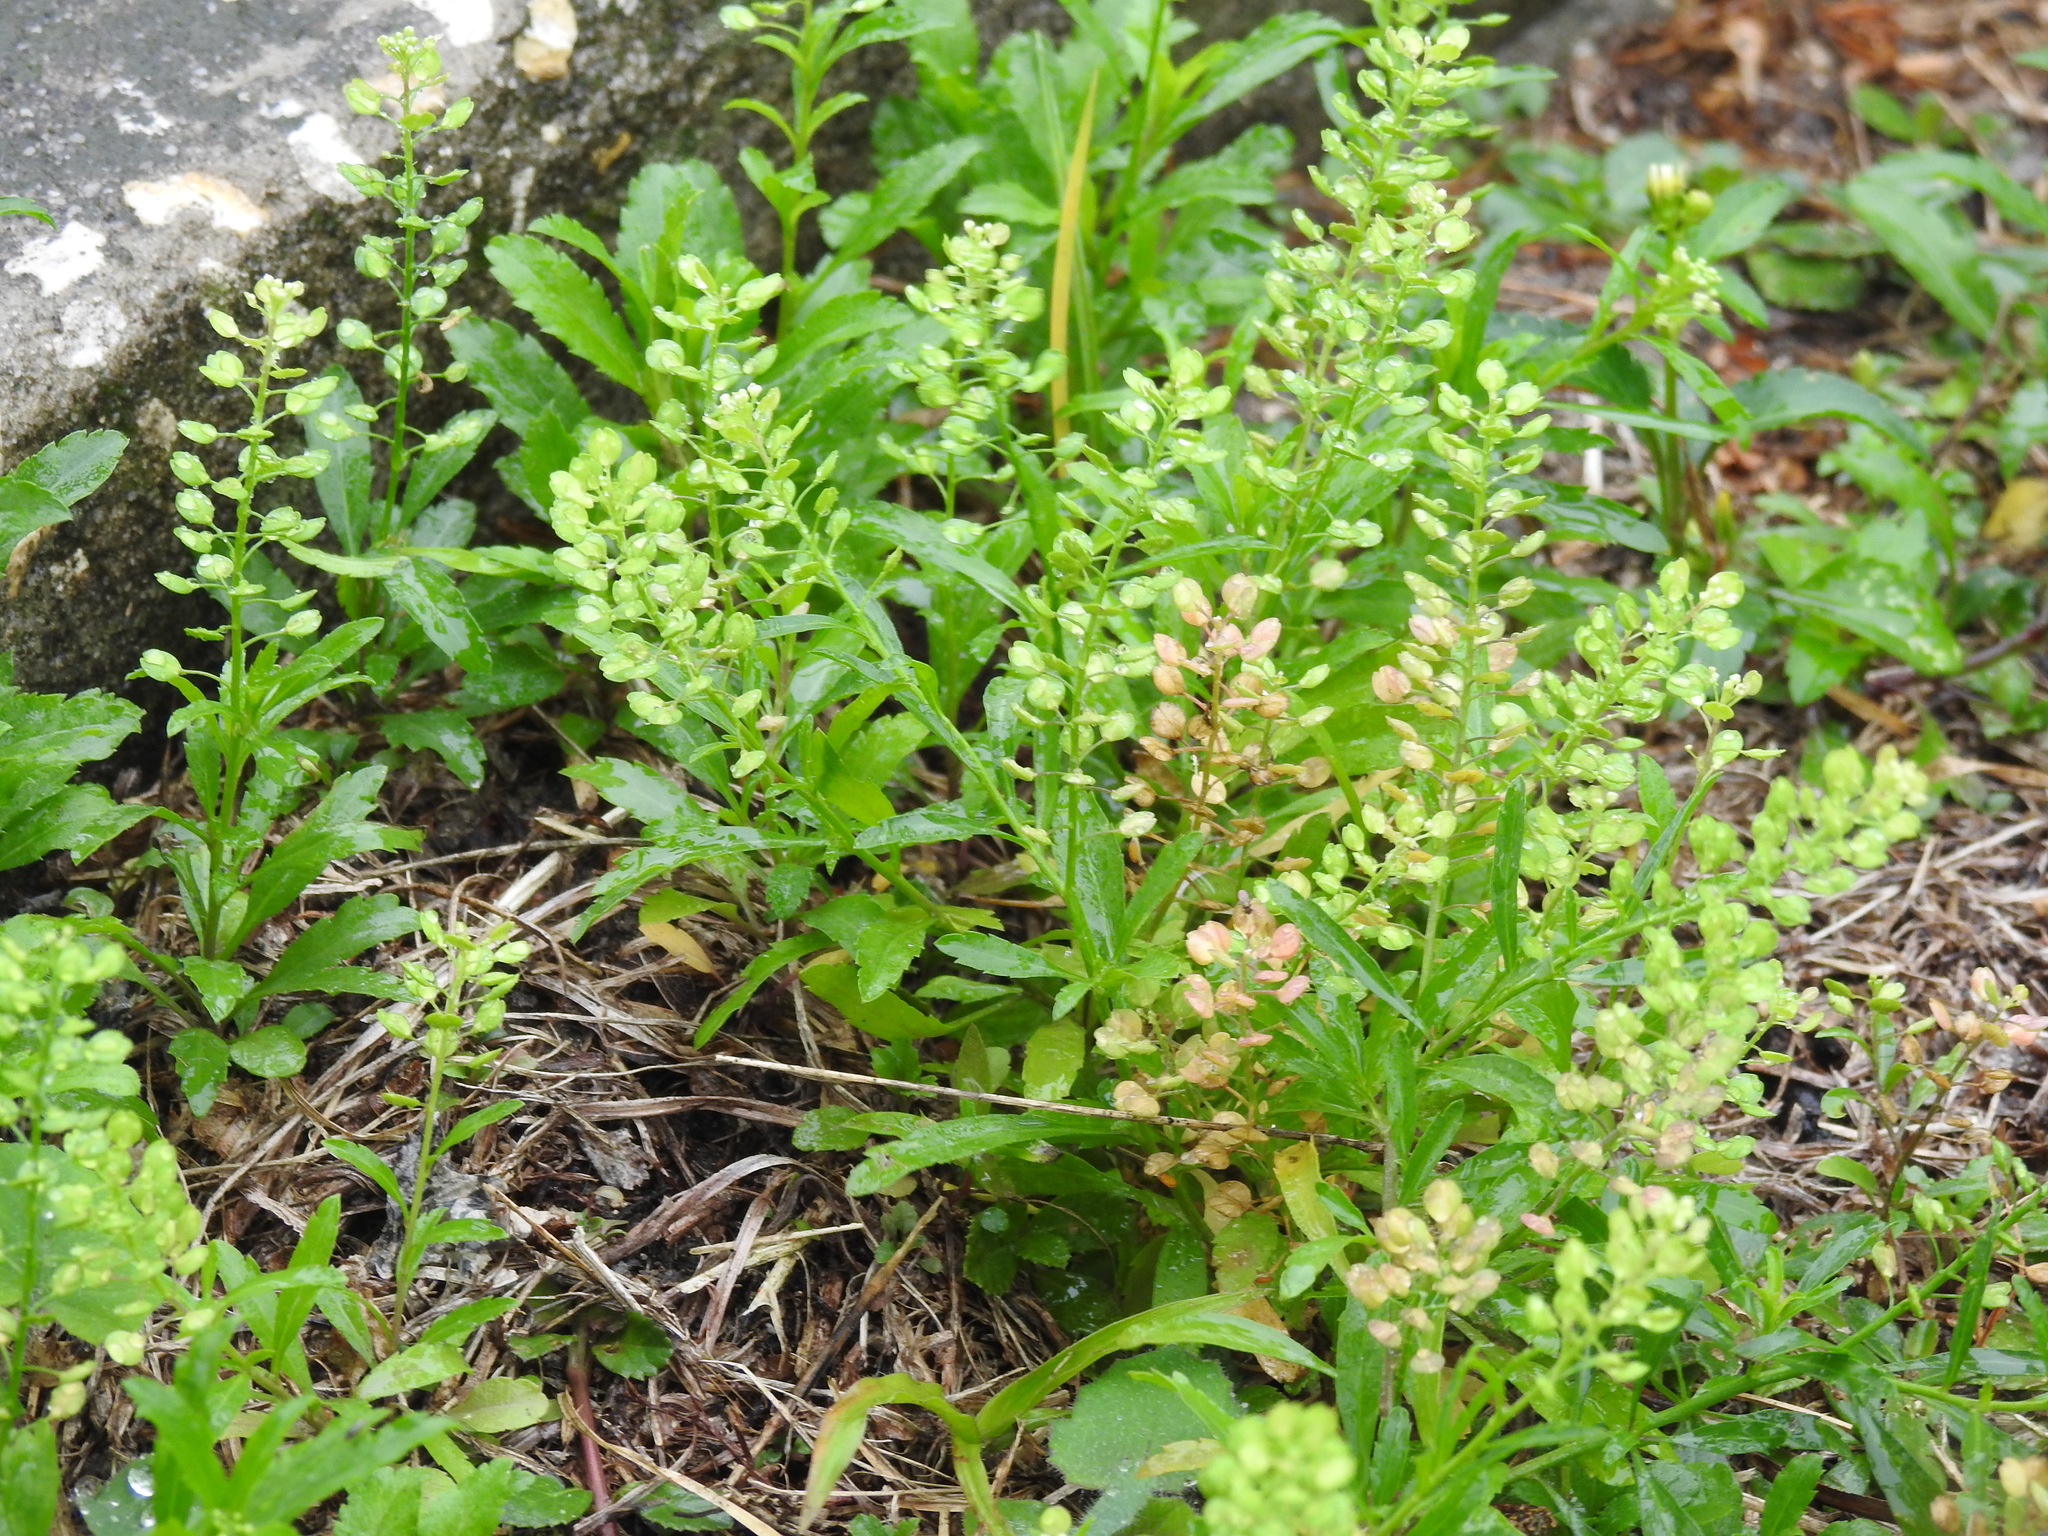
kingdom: Plantae
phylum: Tracheophyta
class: Magnoliopsida
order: Brassicales
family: Brassicaceae
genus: Lepidium
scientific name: Lepidium virginicum
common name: Least pepperwort
